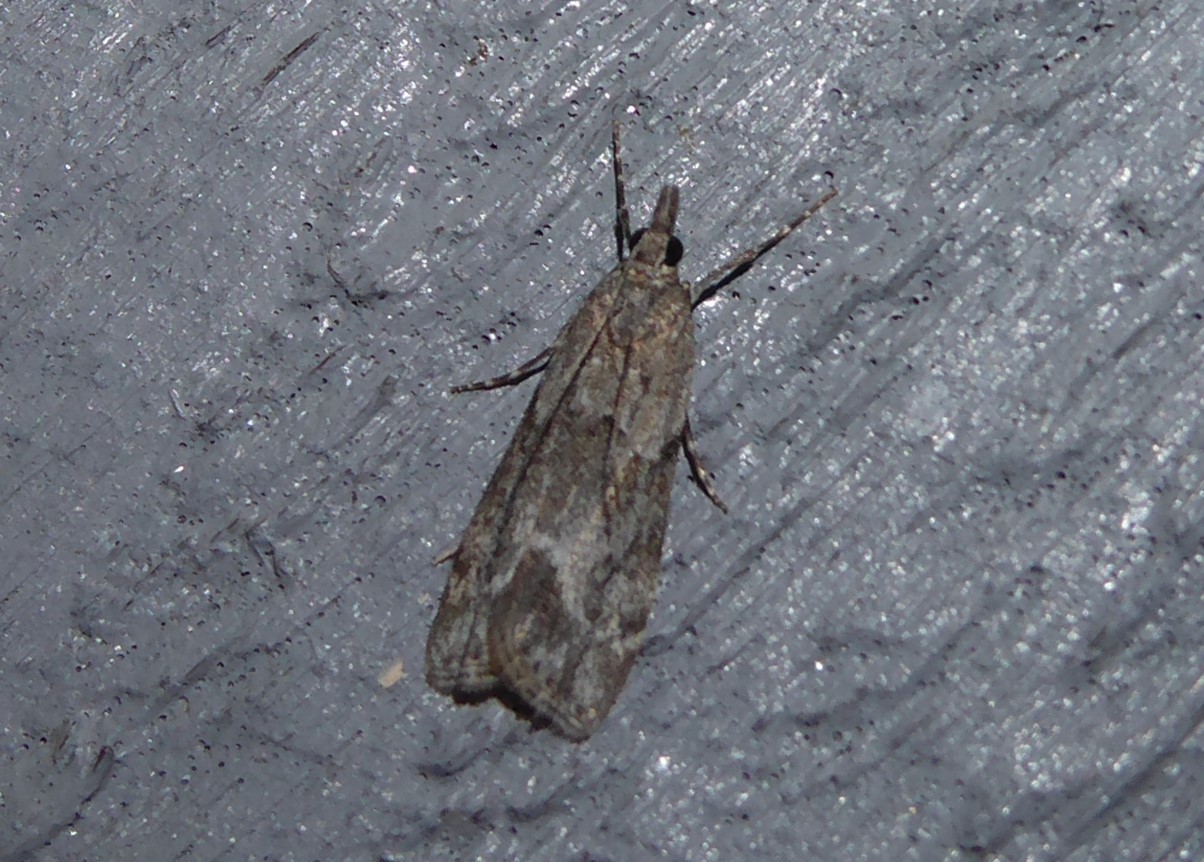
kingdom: Animalia
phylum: Arthropoda
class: Insecta
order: Lepidoptera
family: Crambidae
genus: Eudonia
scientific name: Eudonia rakaiensis
